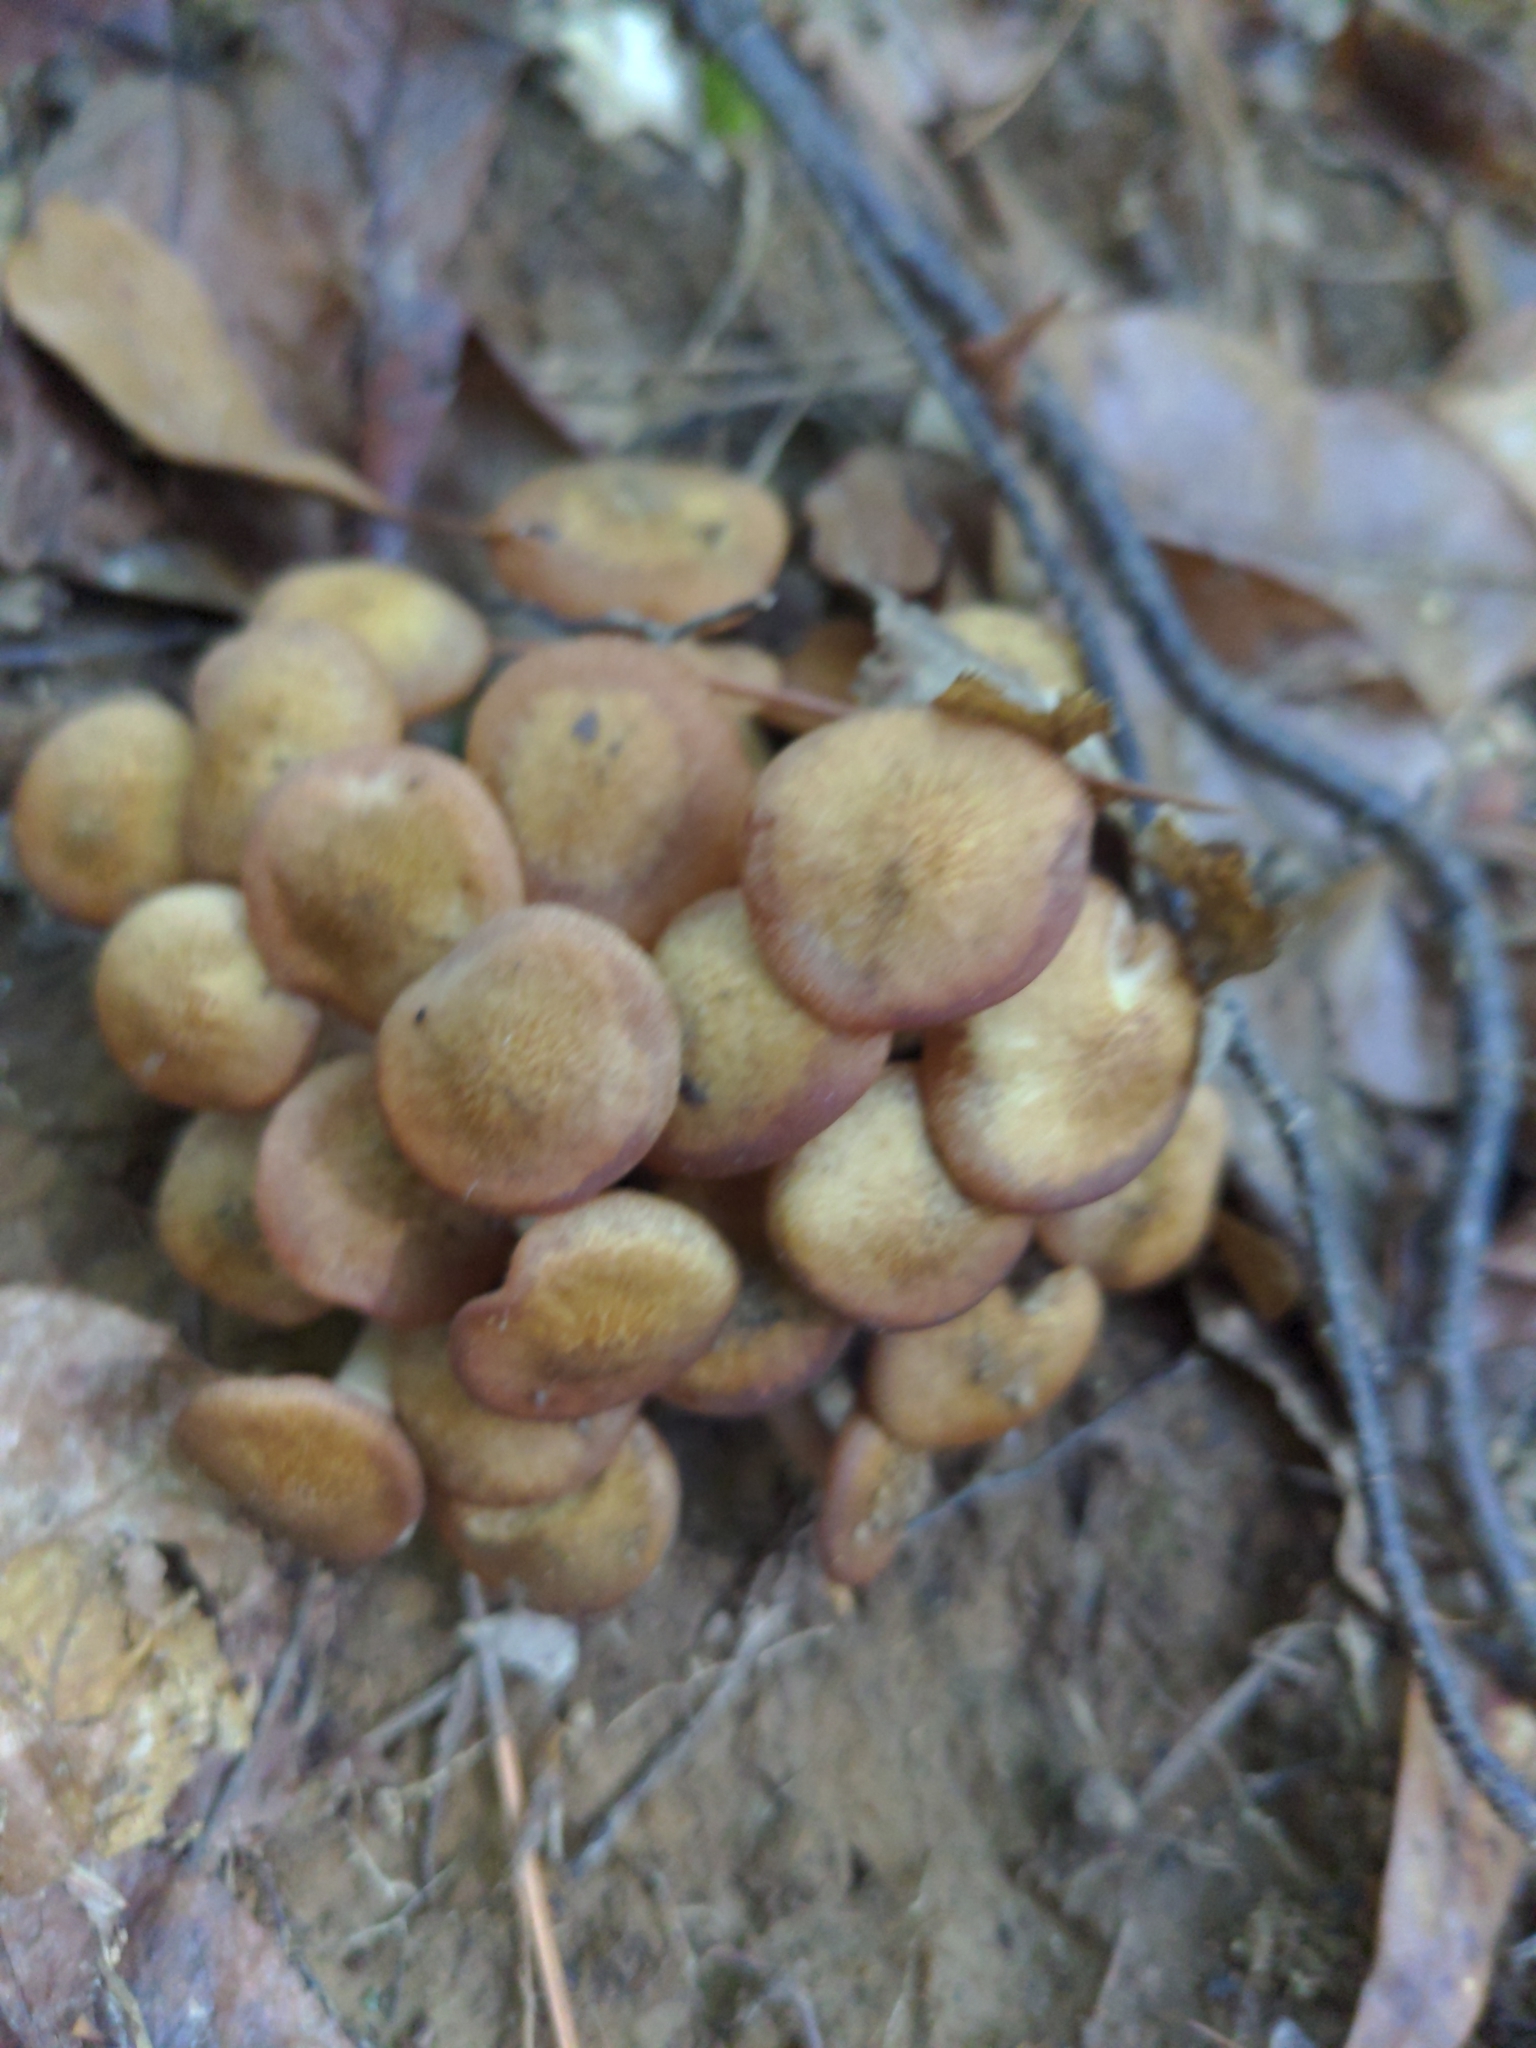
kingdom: Fungi
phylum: Basidiomycota
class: Agaricomycetes
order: Agaricales
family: Physalacriaceae
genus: Desarmillaria
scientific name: Desarmillaria caespitosa
